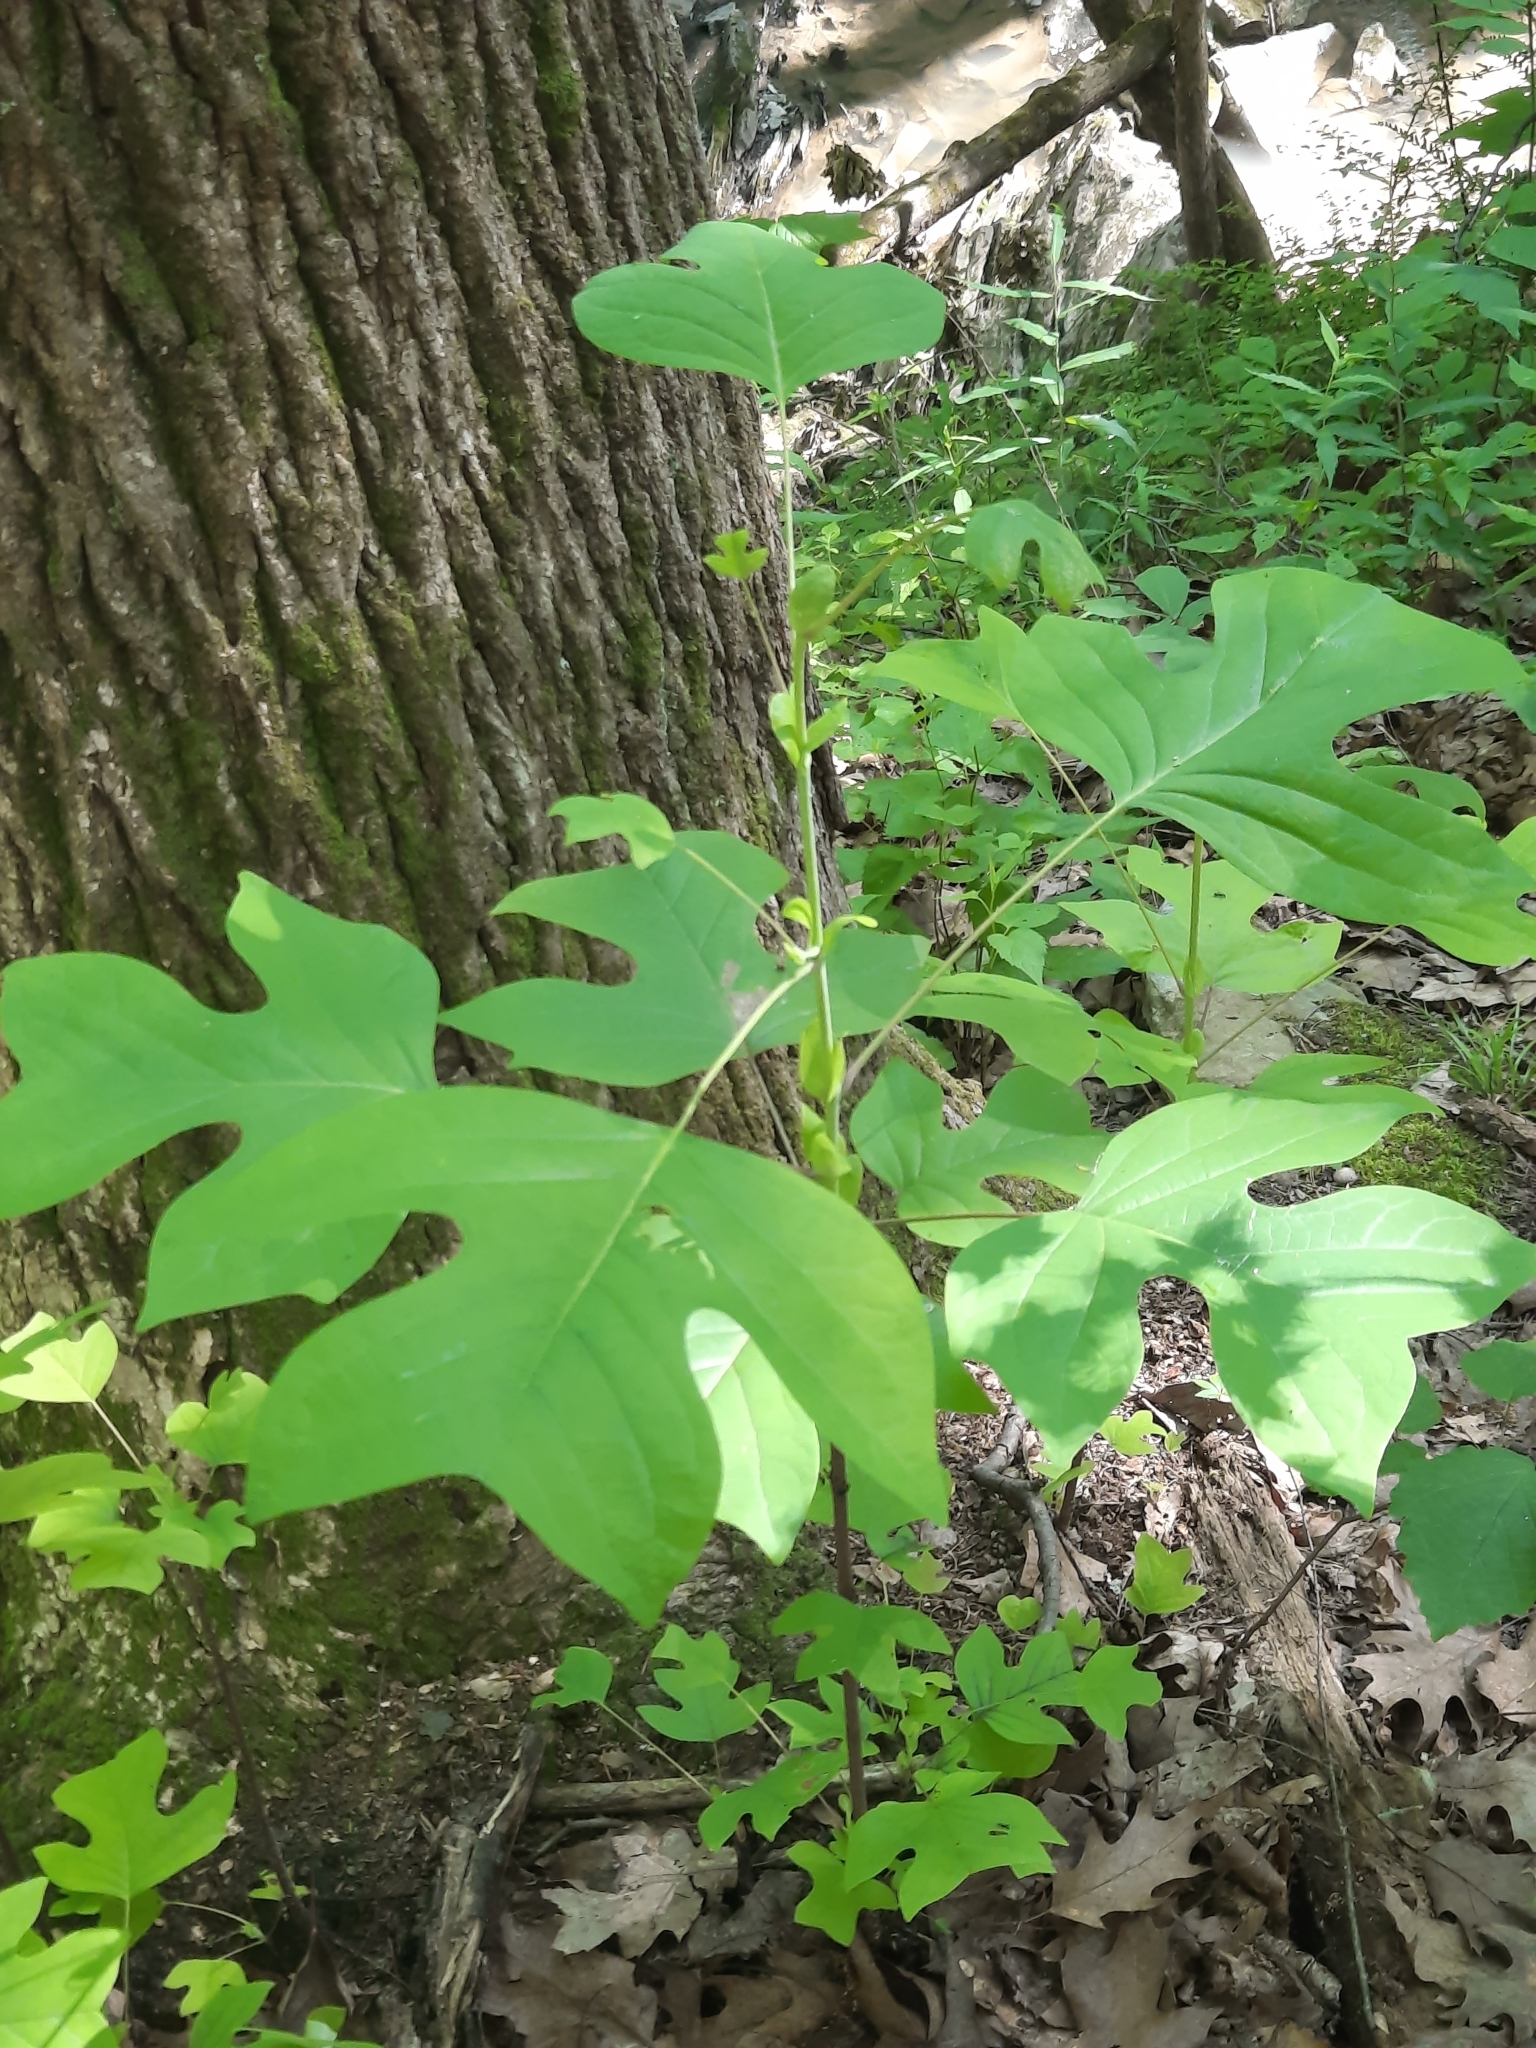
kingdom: Plantae
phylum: Tracheophyta
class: Magnoliopsida
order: Magnoliales
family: Magnoliaceae
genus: Liriodendron
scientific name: Liriodendron tulipifera
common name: Tulip tree
